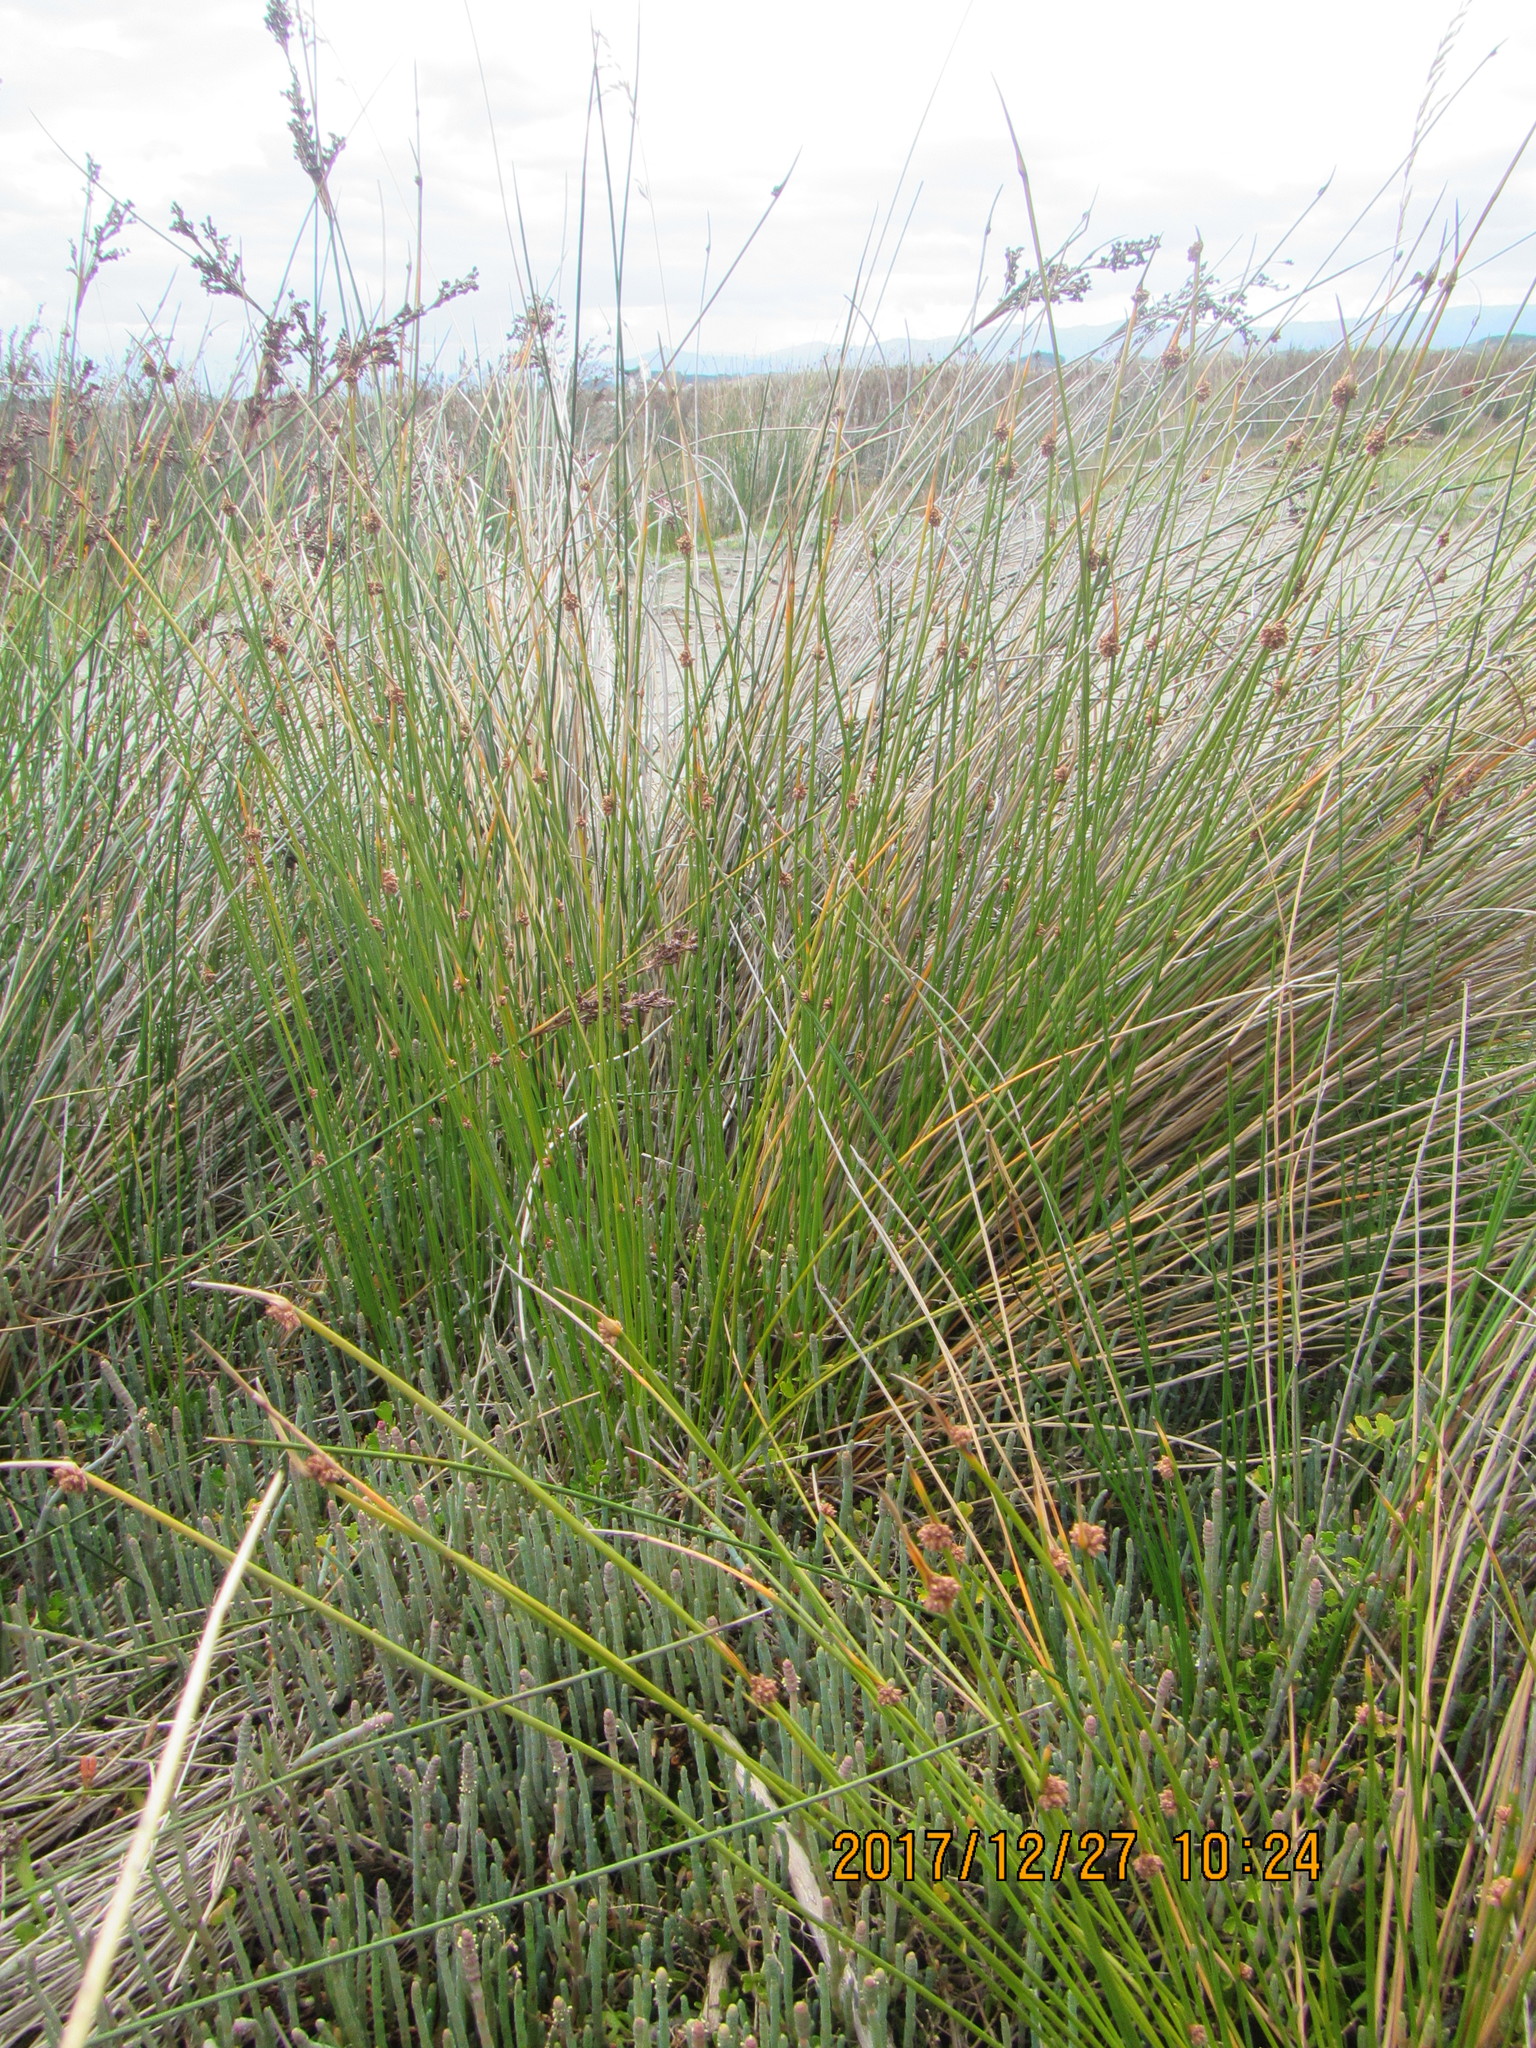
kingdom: Plantae
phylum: Tracheophyta
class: Liliopsida
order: Poales
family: Cyperaceae
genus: Ficinia
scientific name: Ficinia nodosa
